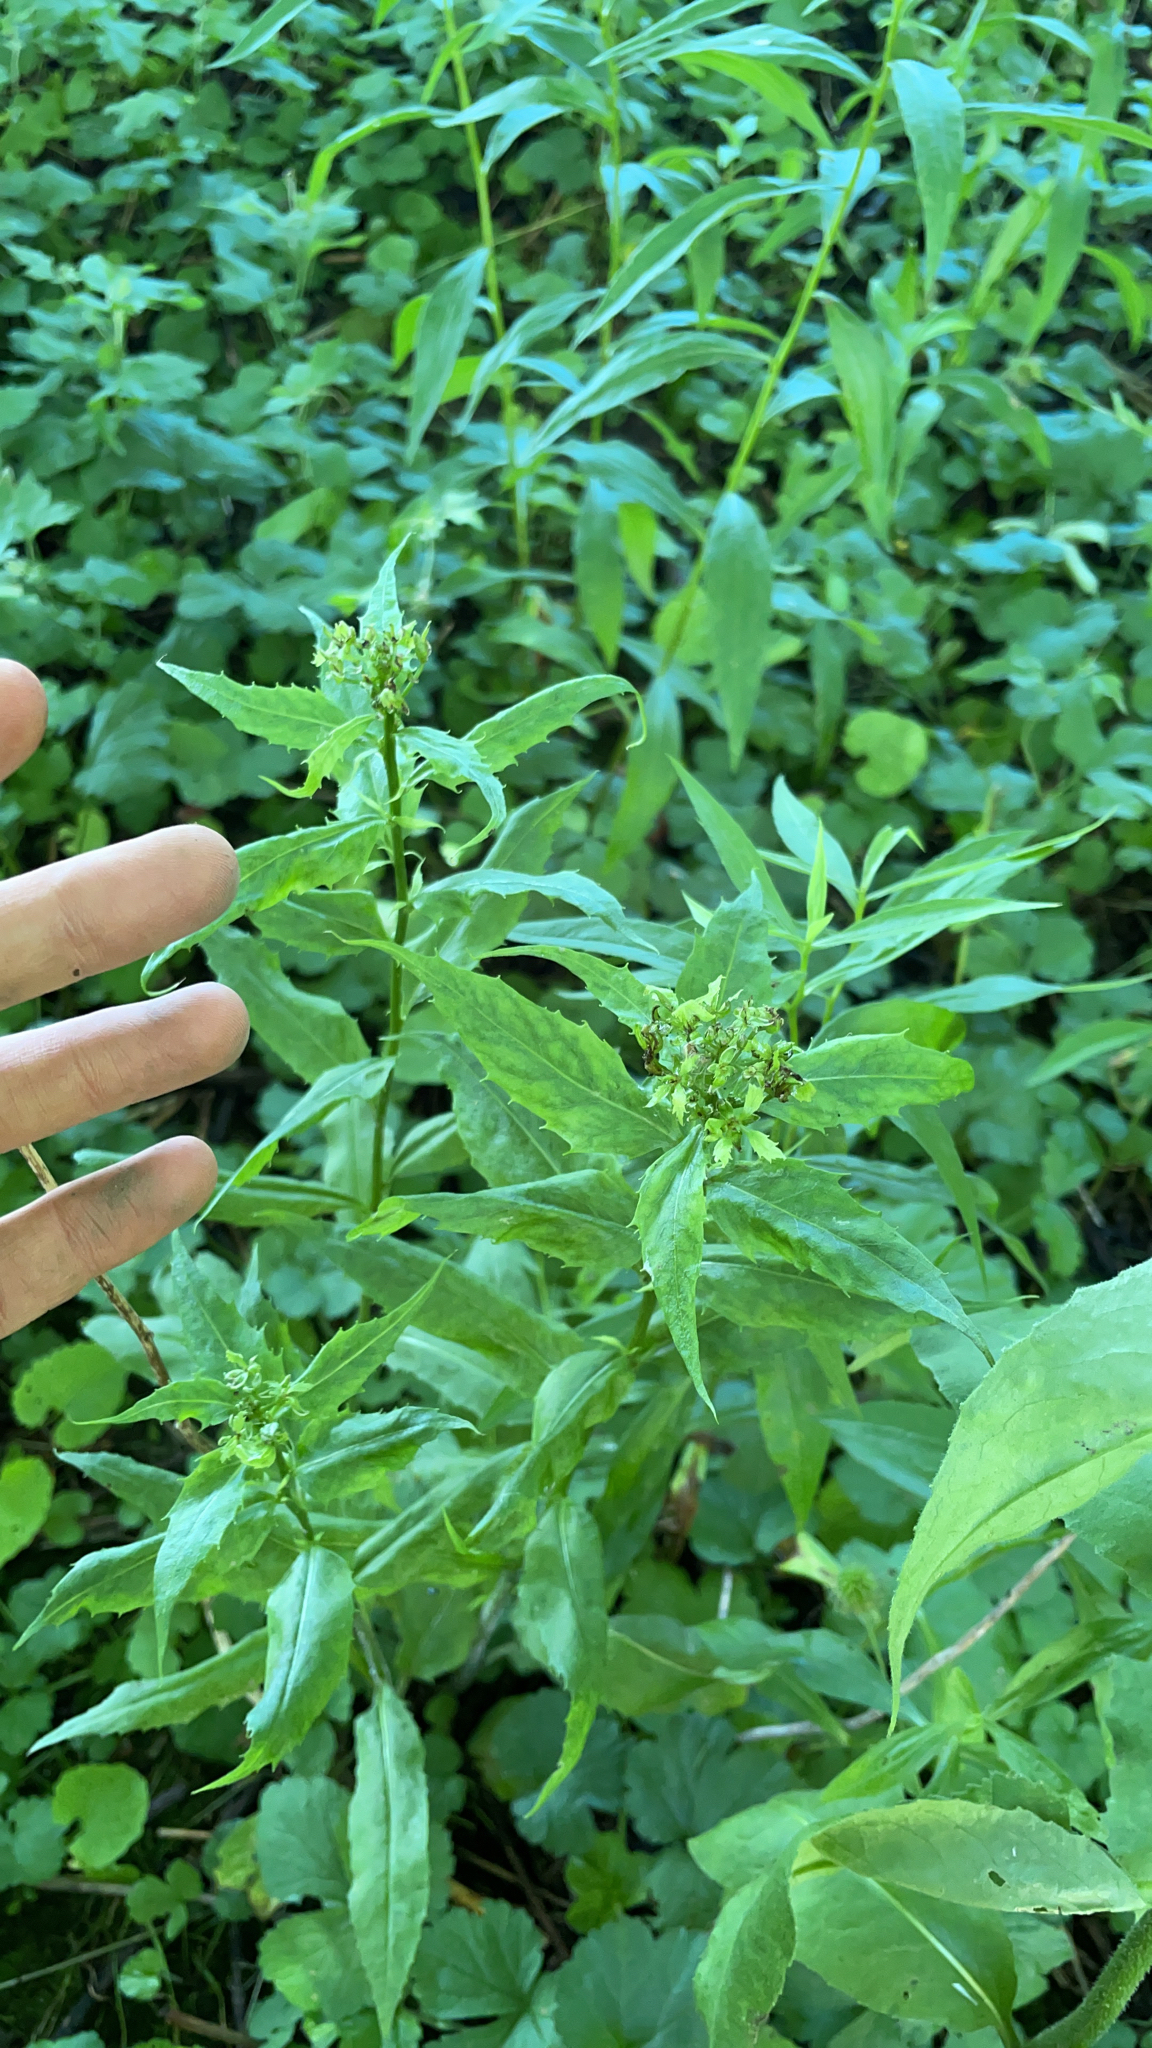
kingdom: Plantae
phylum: Tracheophyta
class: Magnoliopsida
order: Brassicales
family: Brassicaceae
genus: Hesperis
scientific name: Hesperis matronalis
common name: Dame's-violet
